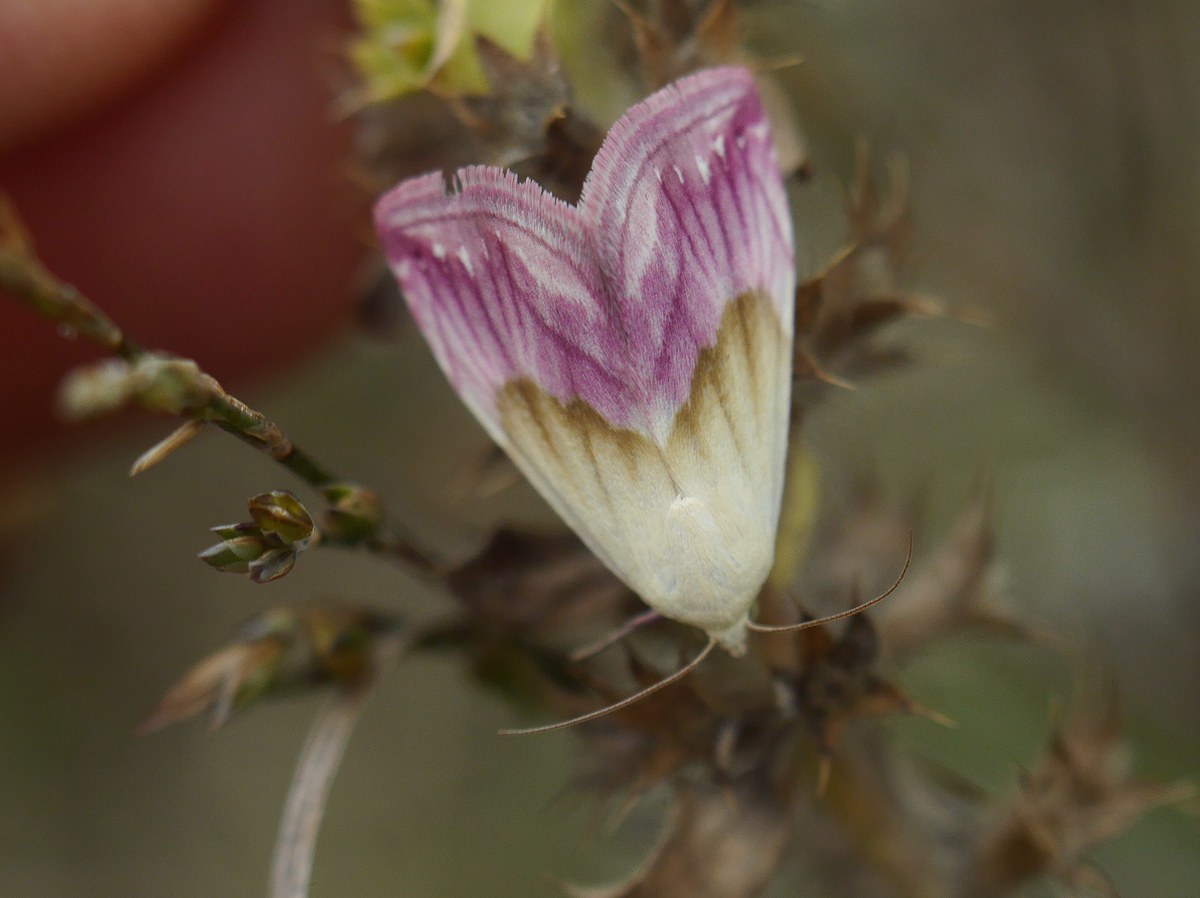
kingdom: Animalia
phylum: Arthropoda
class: Insecta
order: Lepidoptera
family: Noctuidae
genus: Eublemma
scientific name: Eublemma purpurina
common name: Beautiful marbled
